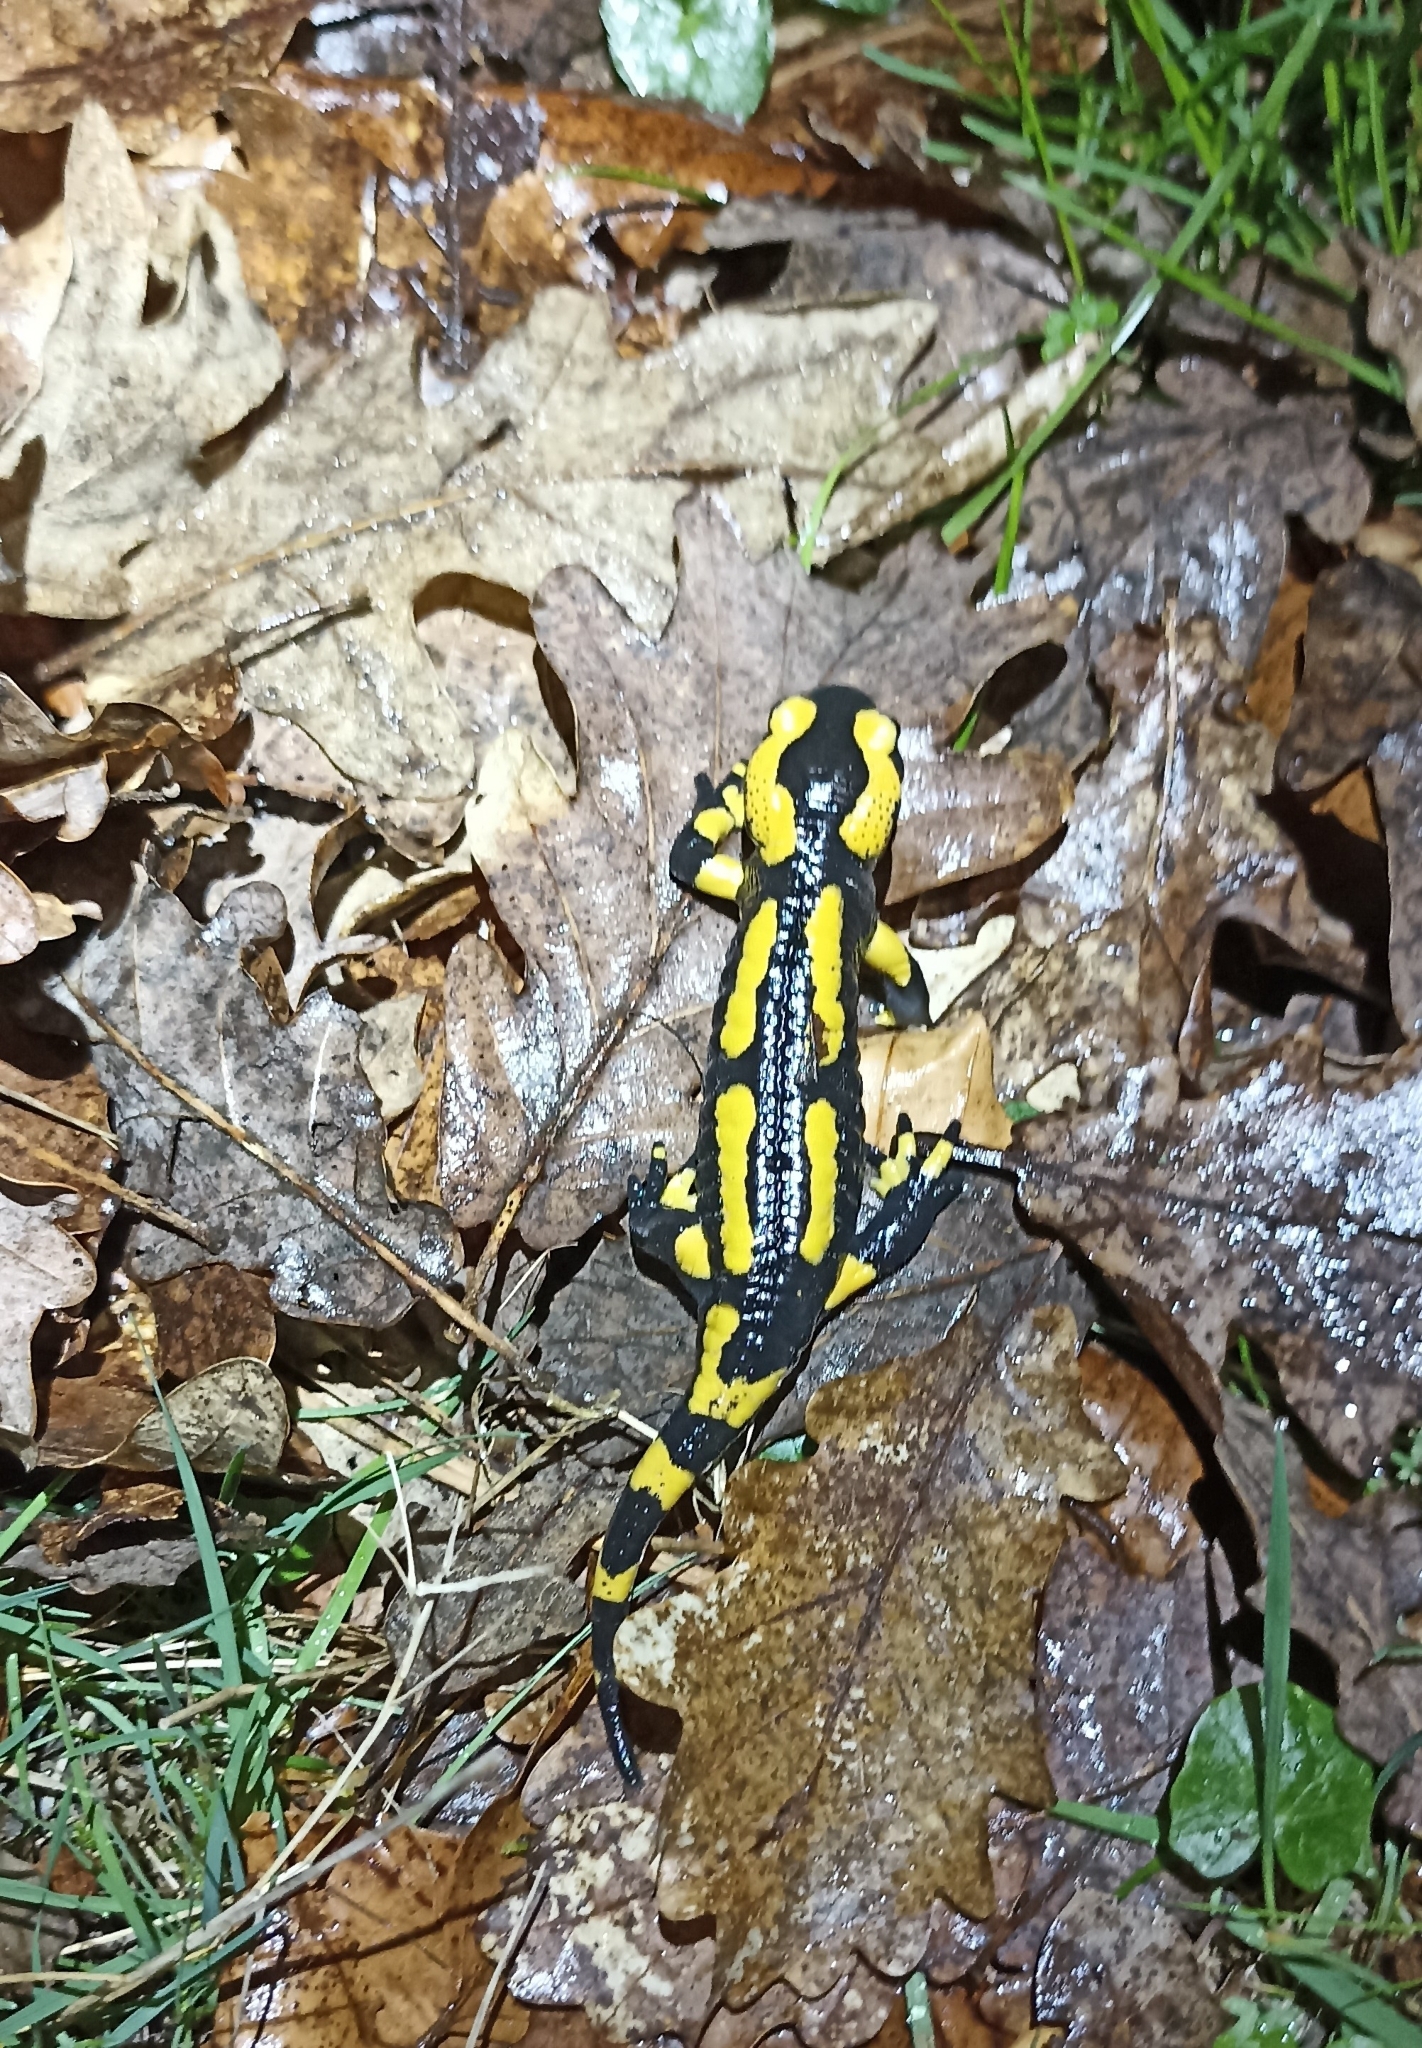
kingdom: Animalia
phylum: Chordata
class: Amphibia
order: Caudata
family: Salamandridae
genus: Salamandra
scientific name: Salamandra salamandra
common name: Fire salamander
